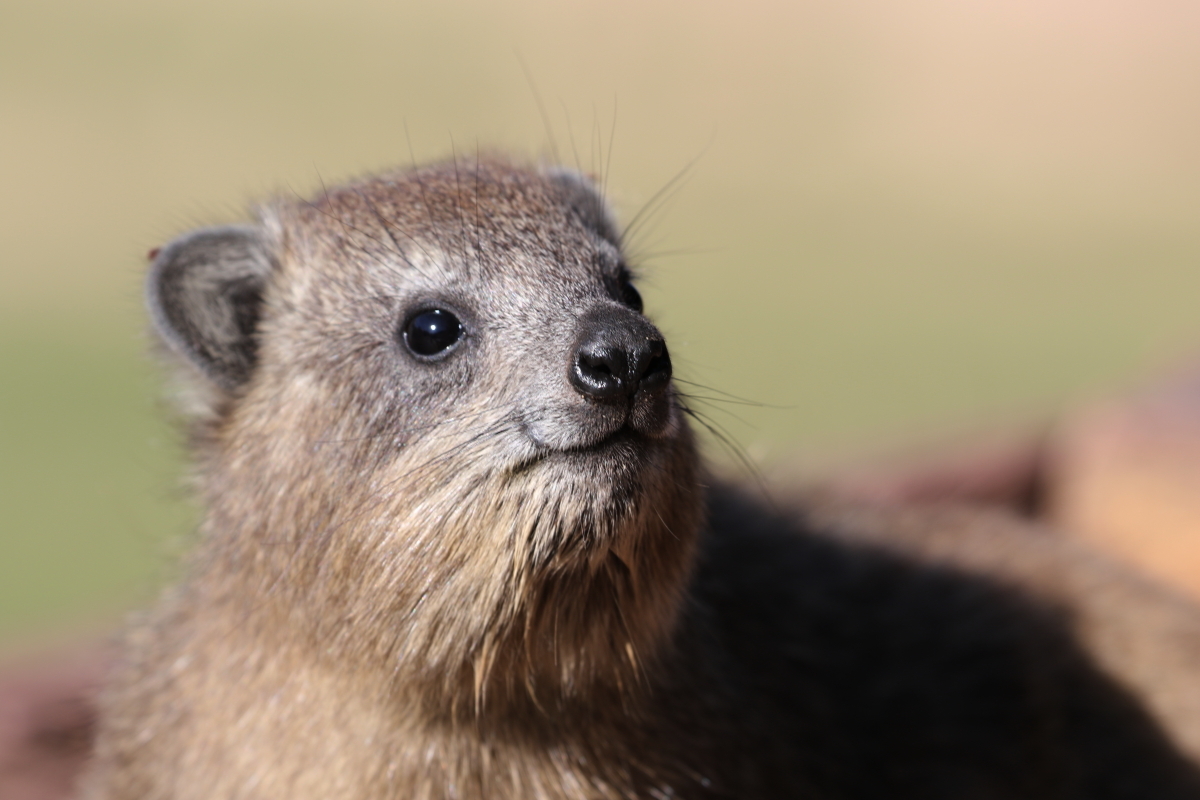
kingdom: Animalia
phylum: Chordata
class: Mammalia
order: Hyracoidea
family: Procaviidae
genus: Procavia
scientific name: Procavia capensis
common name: Rock hyrax
